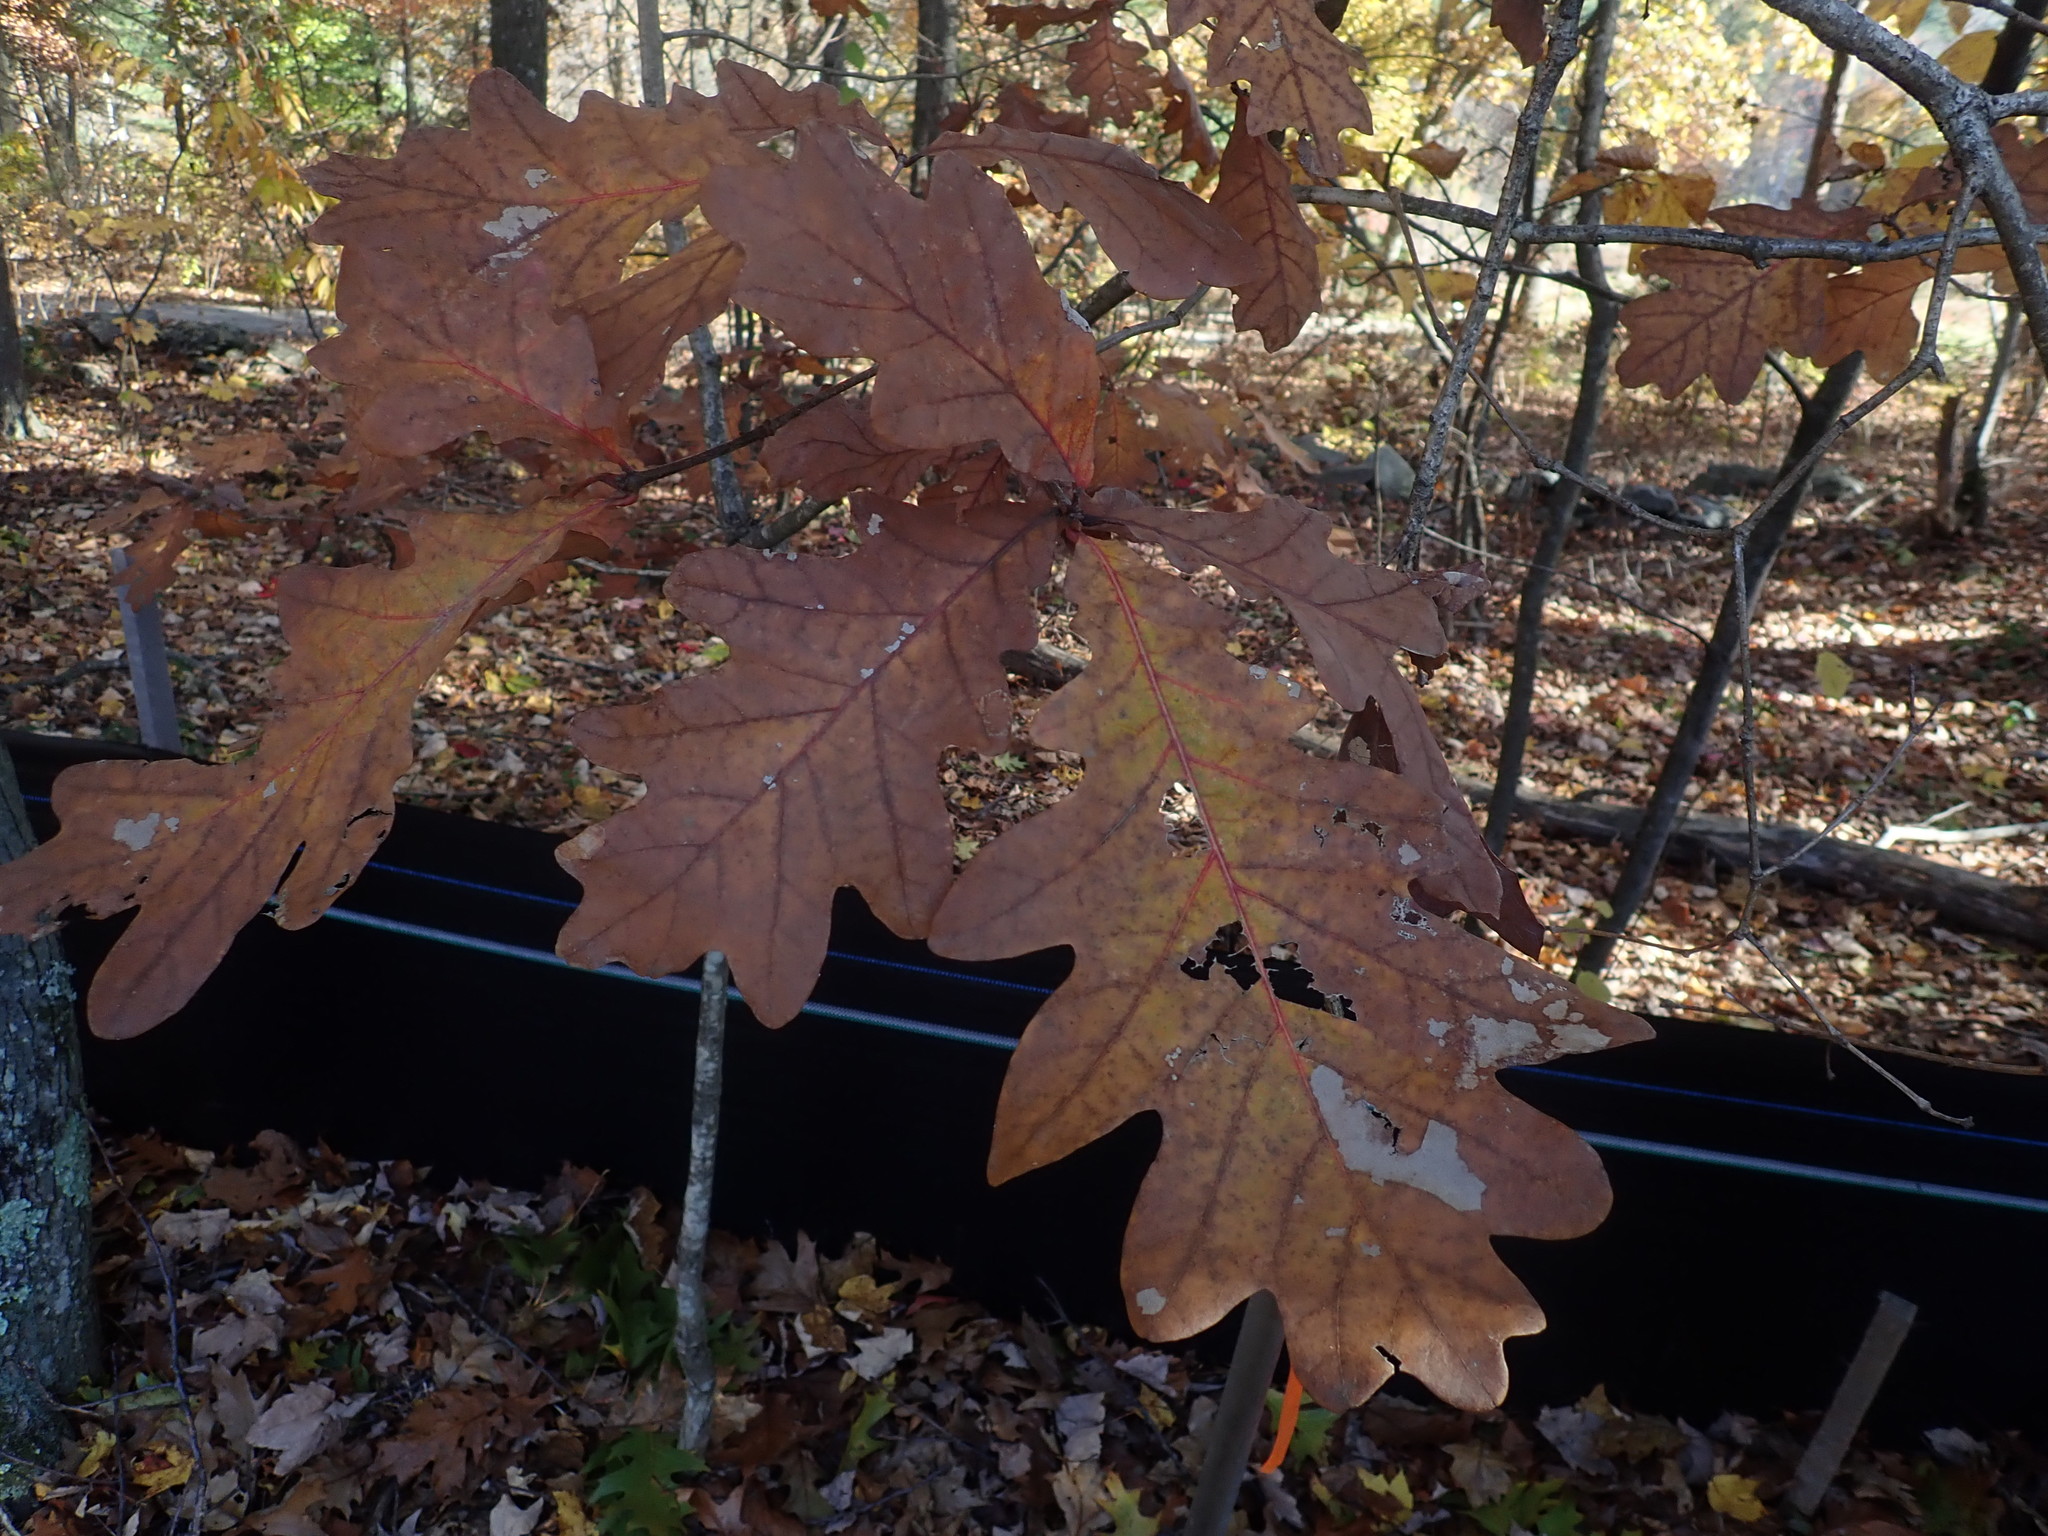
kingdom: Plantae
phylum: Tracheophyta
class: Magnoliopsida
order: Fagales
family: Fagaceae
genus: Quercus
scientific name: Quercus alba
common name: White oak
